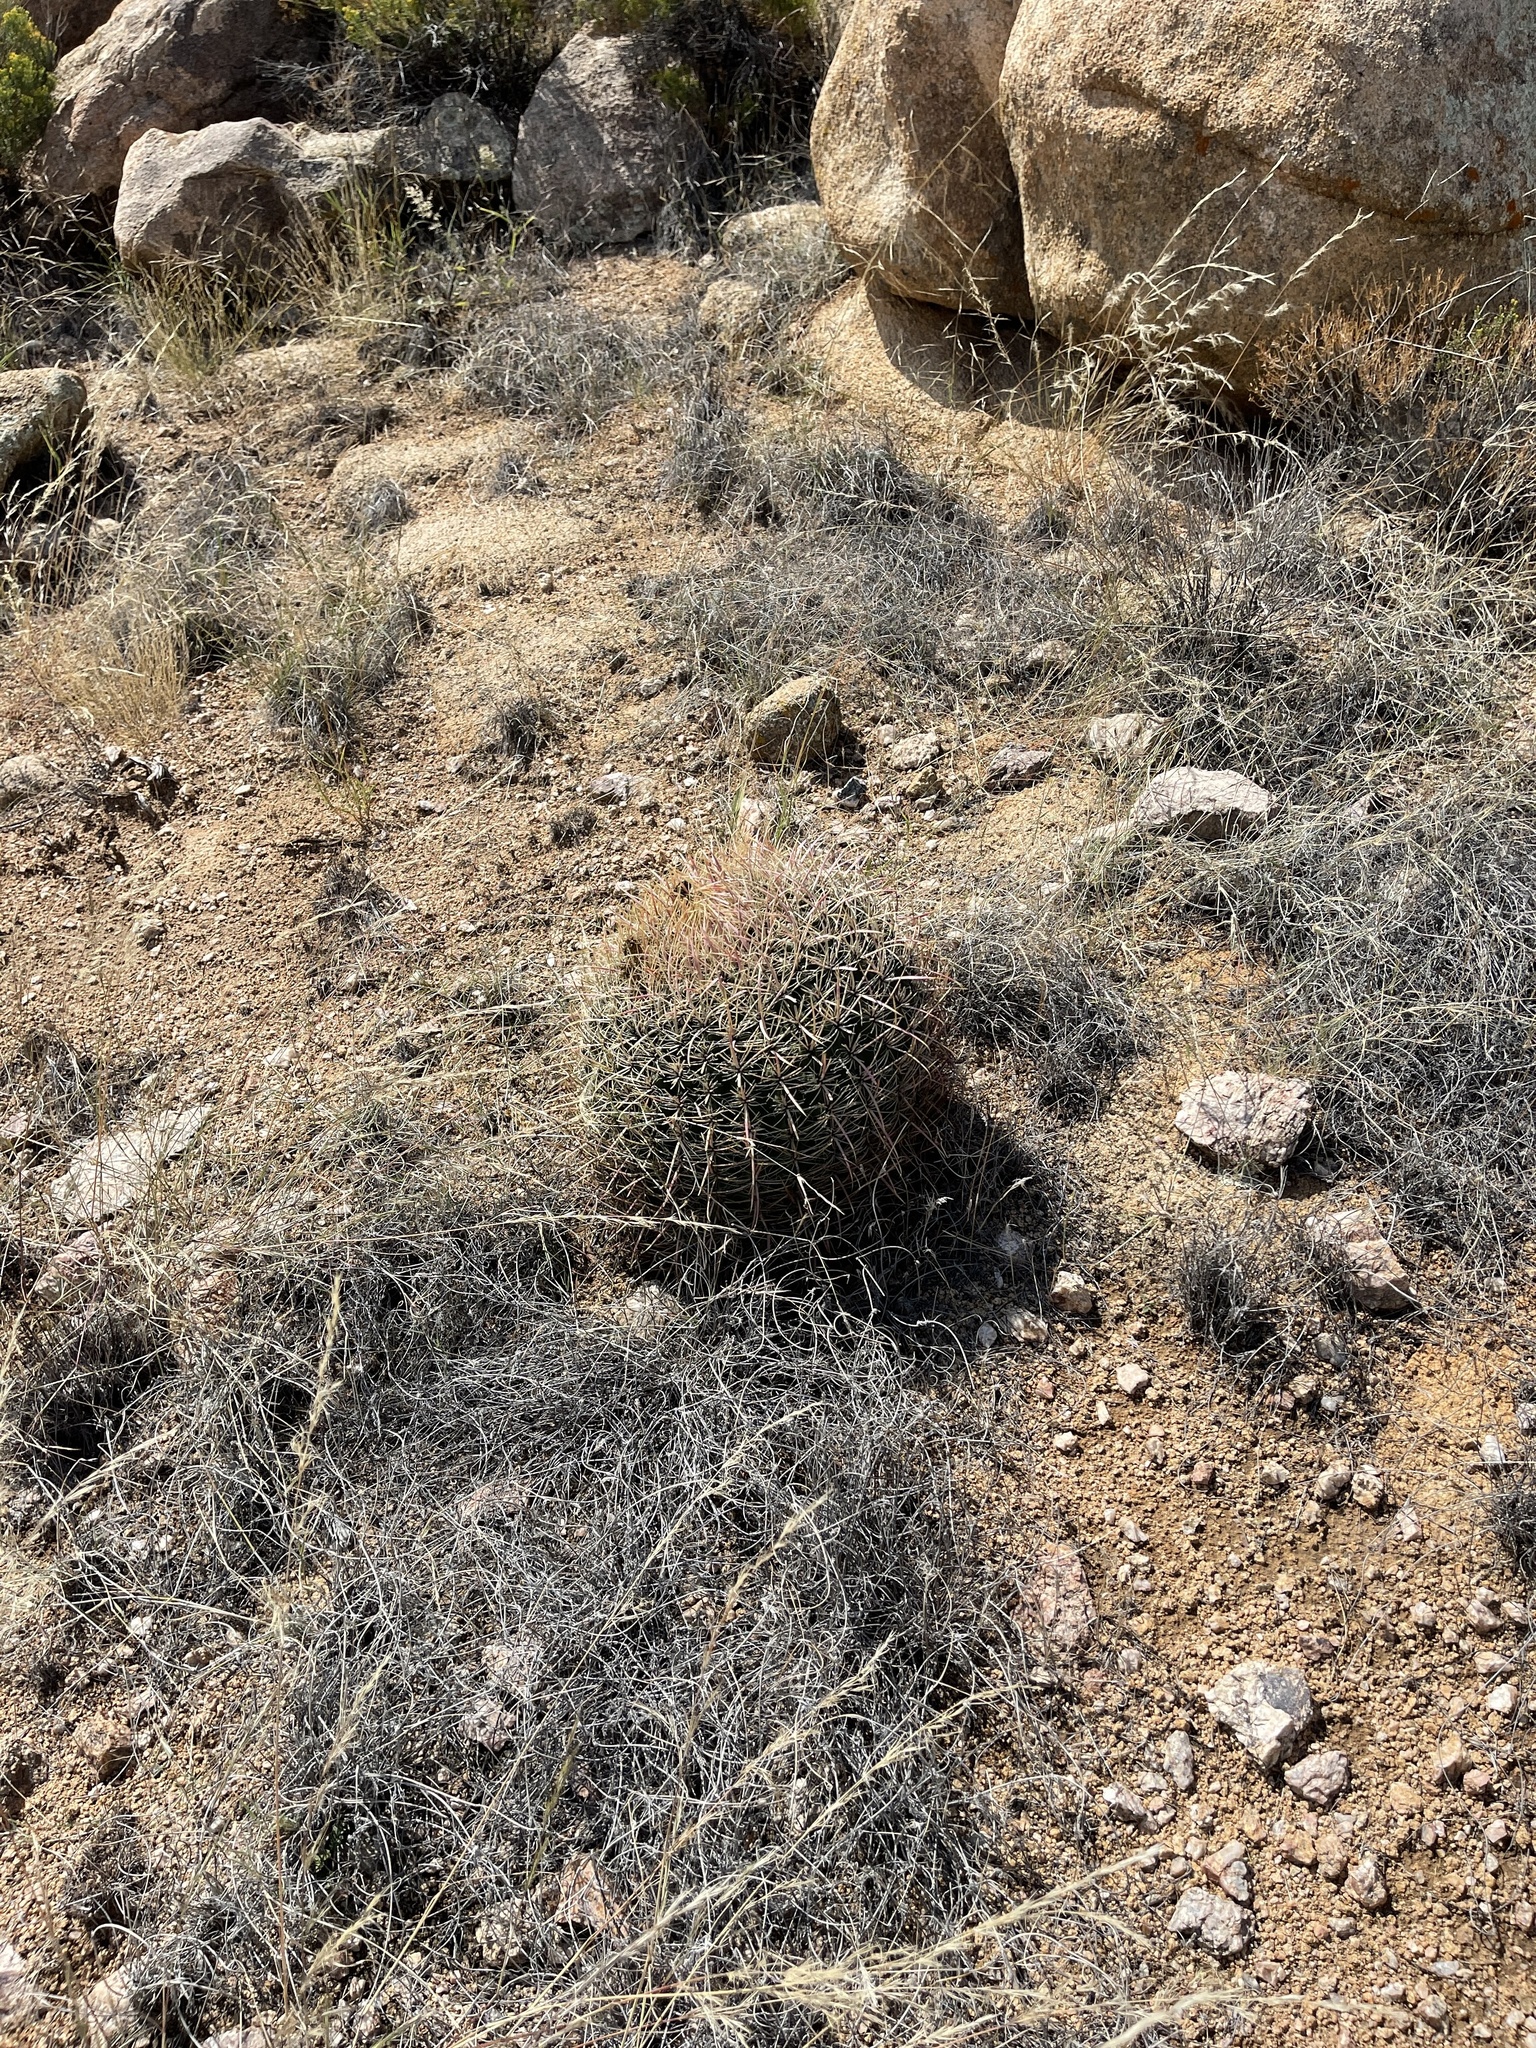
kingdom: Plantae
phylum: Tracheophyta
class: Magnoliopsida
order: Caryophyllales
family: Cactaceae
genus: Ferocactus
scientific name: Ferocactus cylindraceus
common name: California barrel cactus
